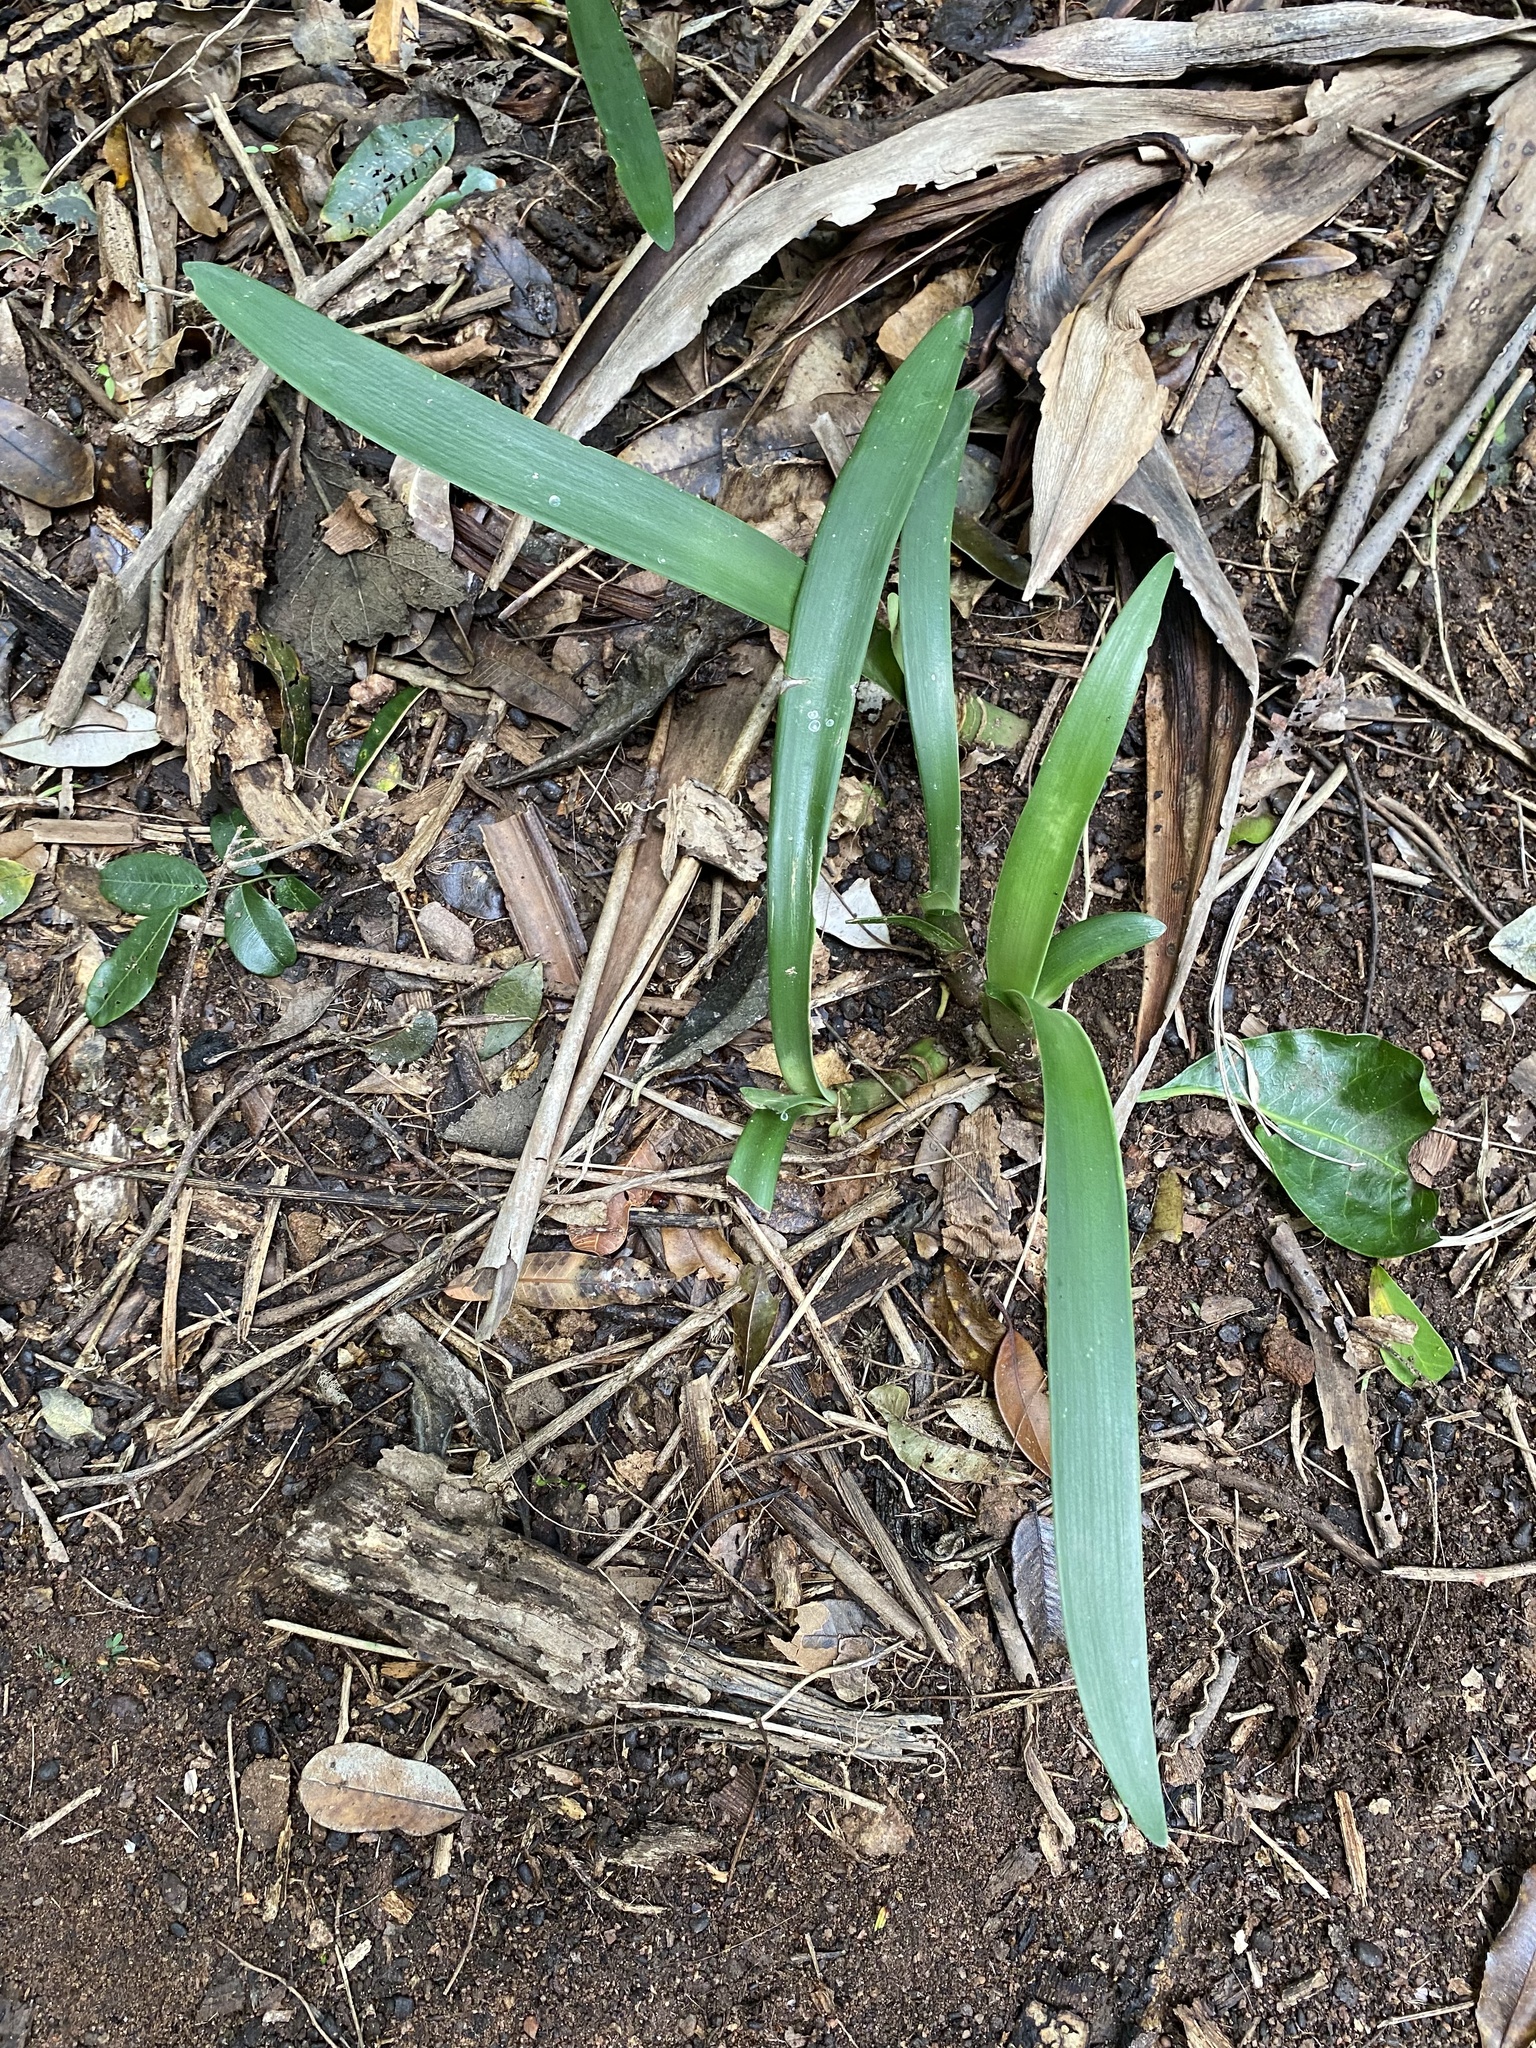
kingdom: Plantae
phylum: Tracheophyta
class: Liliopsida
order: Asparagales
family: Amaryllidaceae
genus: Clivia
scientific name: Clivia miniata
